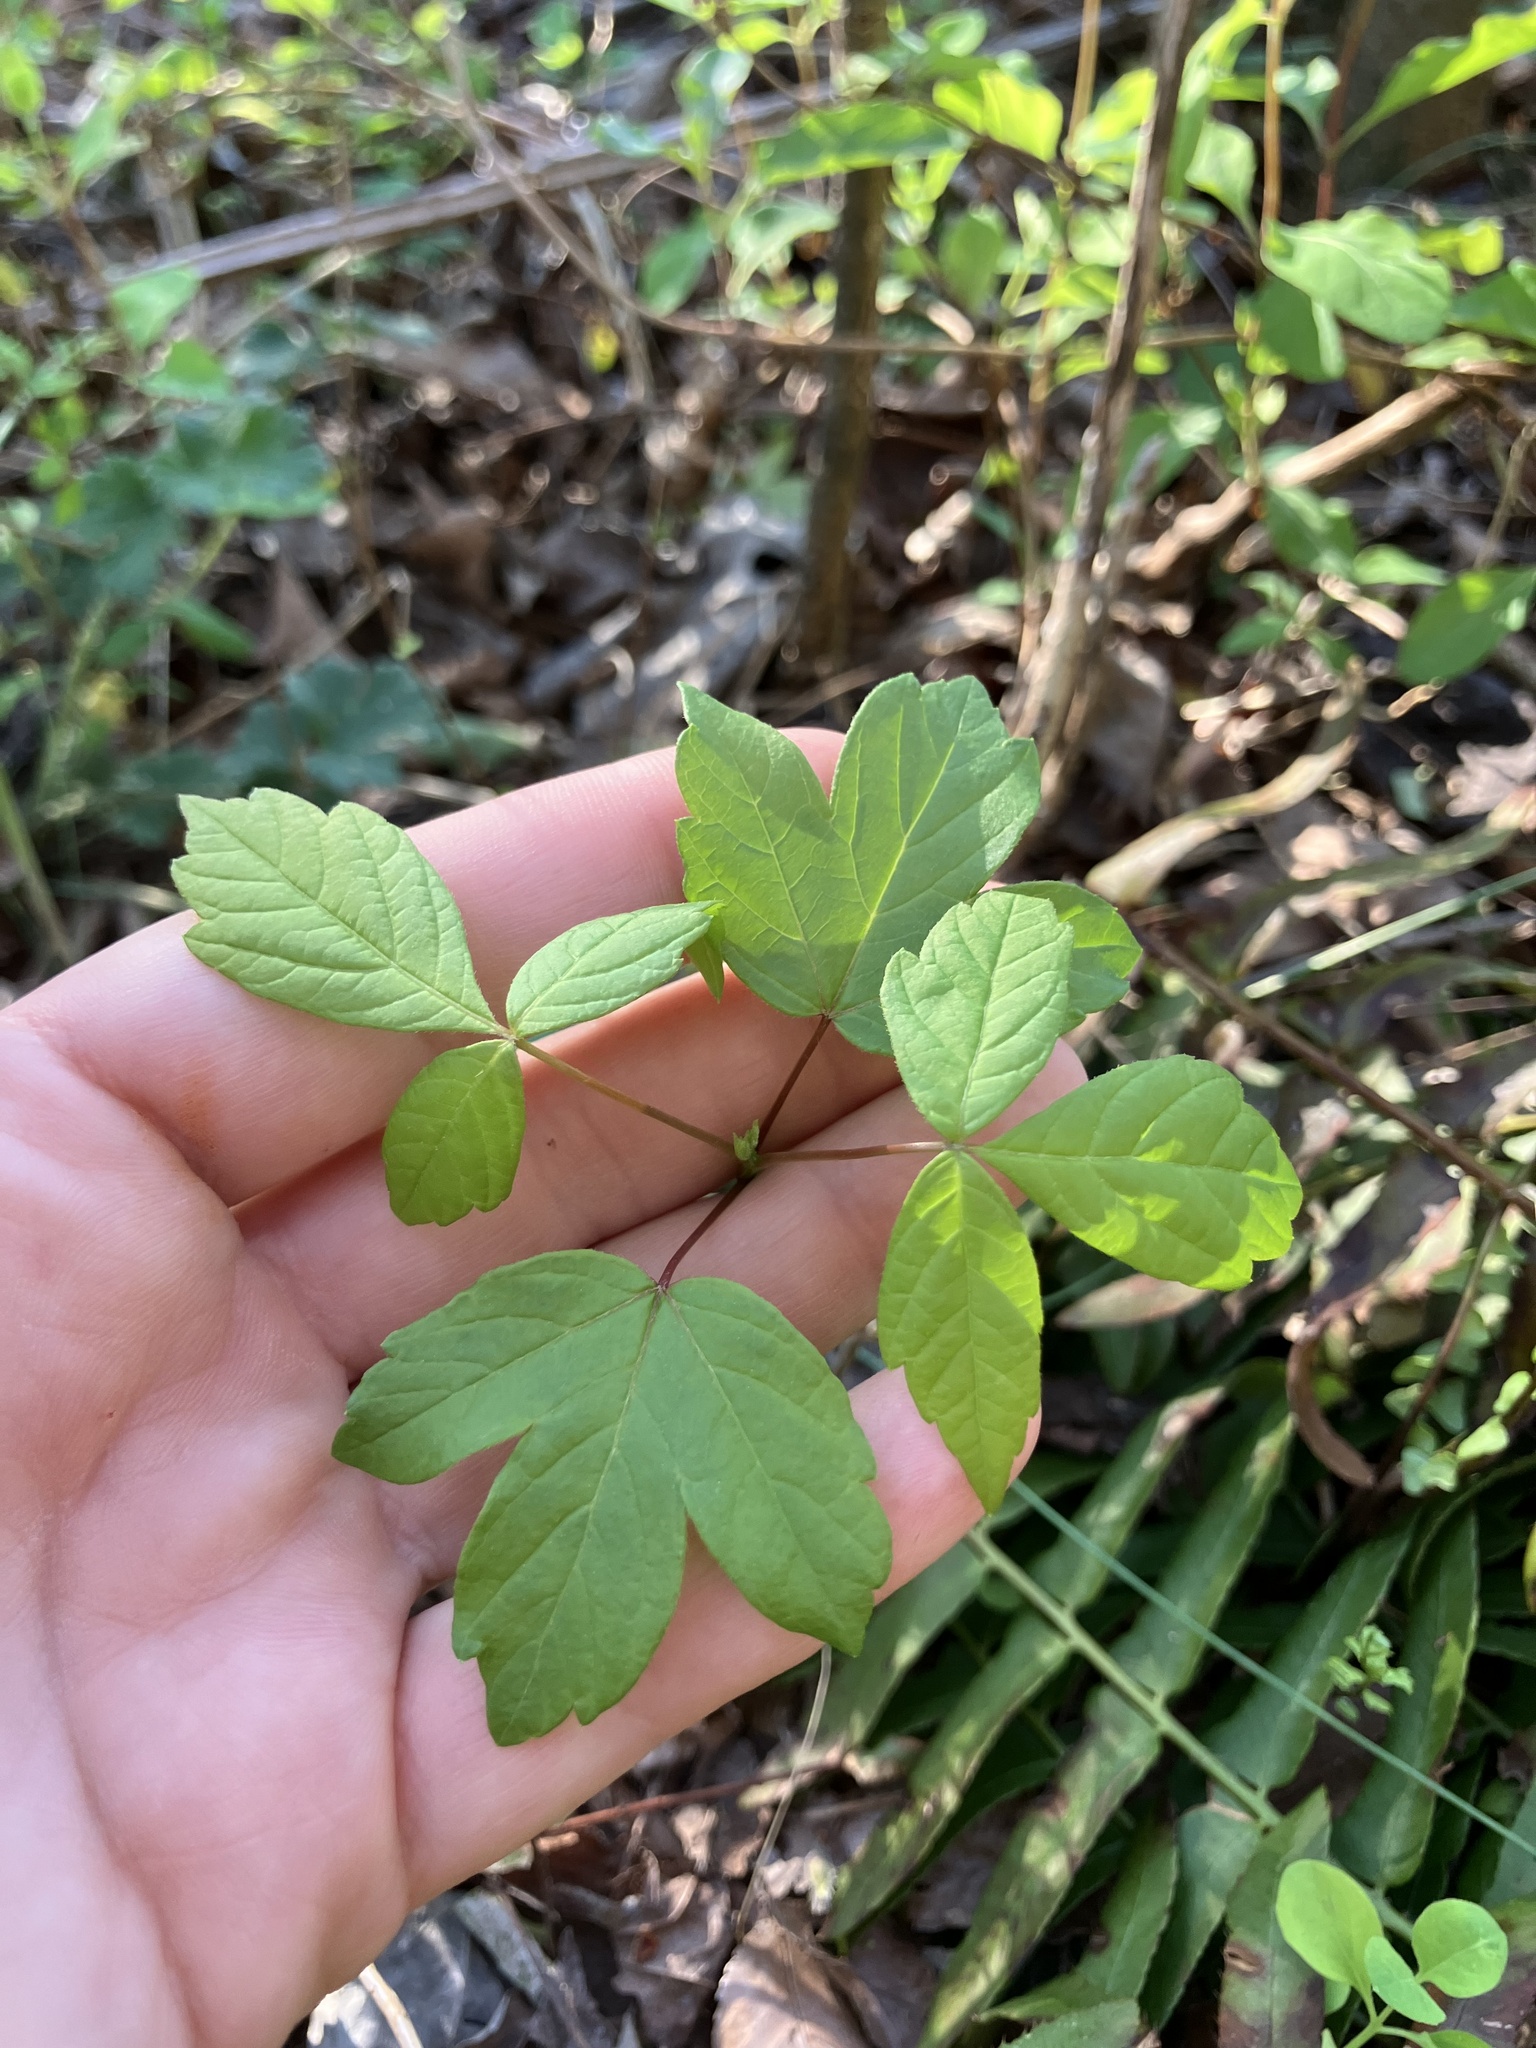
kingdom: Plantae
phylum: Tracheophyta
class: Magnoliopsida
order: Sapindales
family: Sapindaceae
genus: Acer
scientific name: Acer negundo
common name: Ashleaf maple
